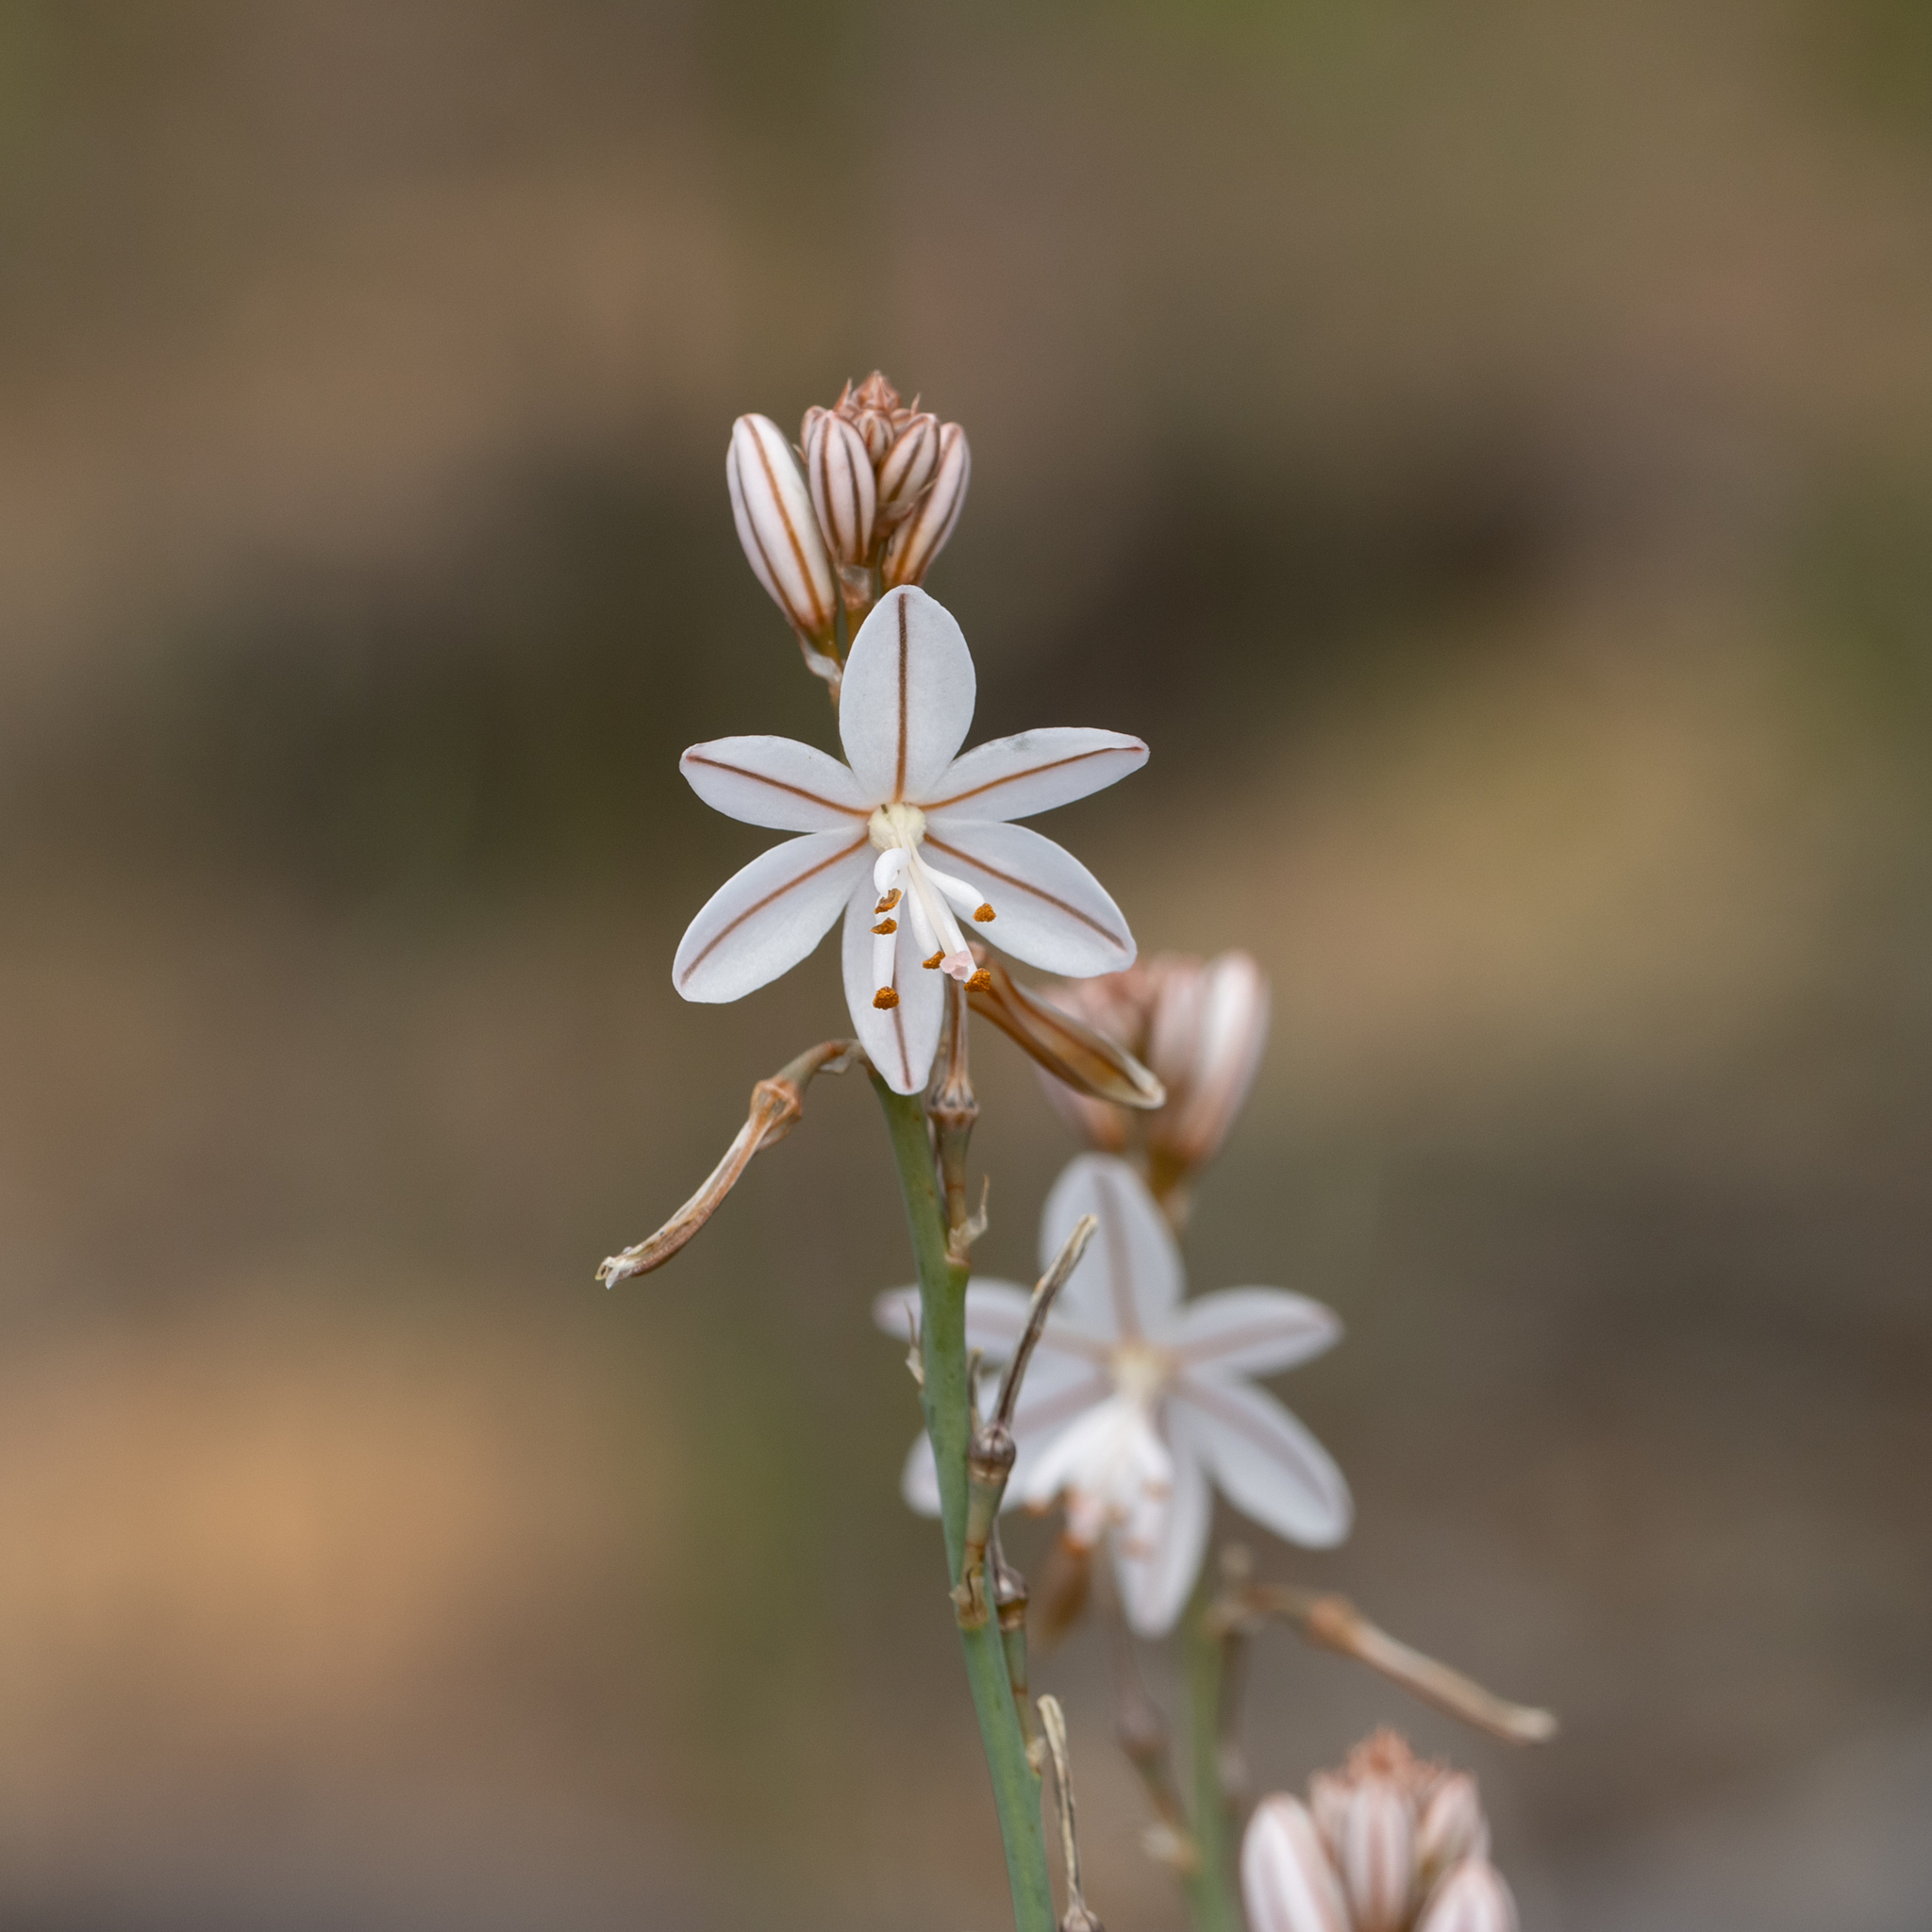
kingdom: Plantae
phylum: Tracheophyta
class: Liliopsida
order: Asparagales
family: Asphodelaceae
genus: Asphodelus
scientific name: Asphodelus fistulosus
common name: Onionweed
